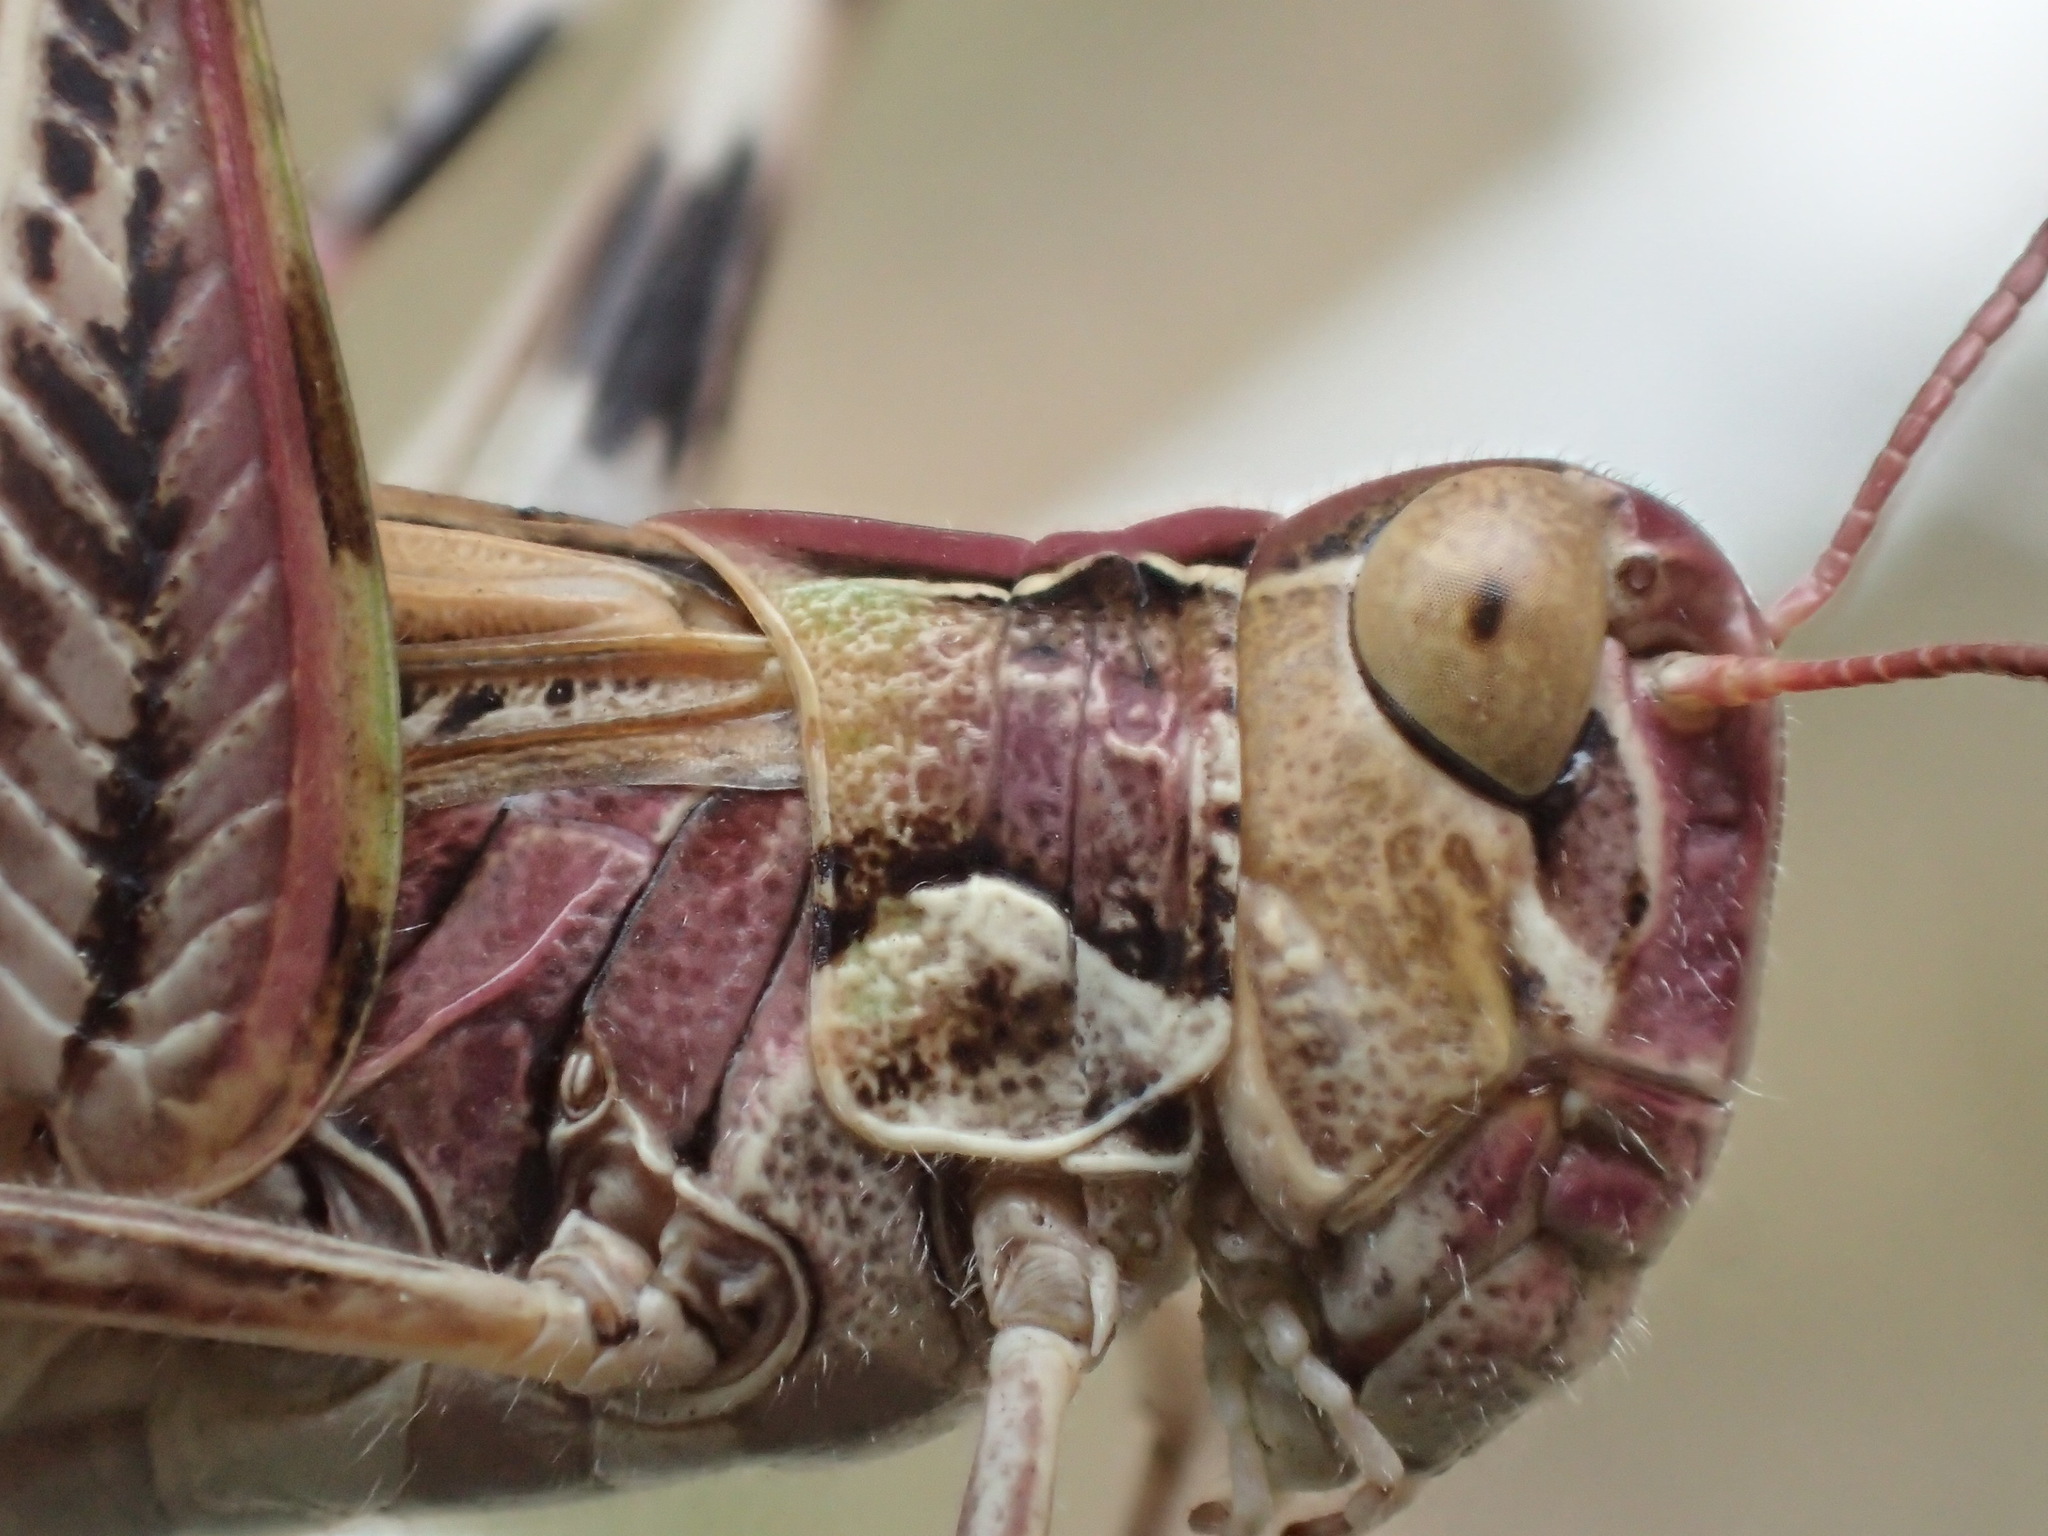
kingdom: Animalia
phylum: Arthropoda
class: Insecta
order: Orthoptera
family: Acrididae
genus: Austroicetes
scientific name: Austroicetes vulgaris
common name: Southeastern austroicetes
